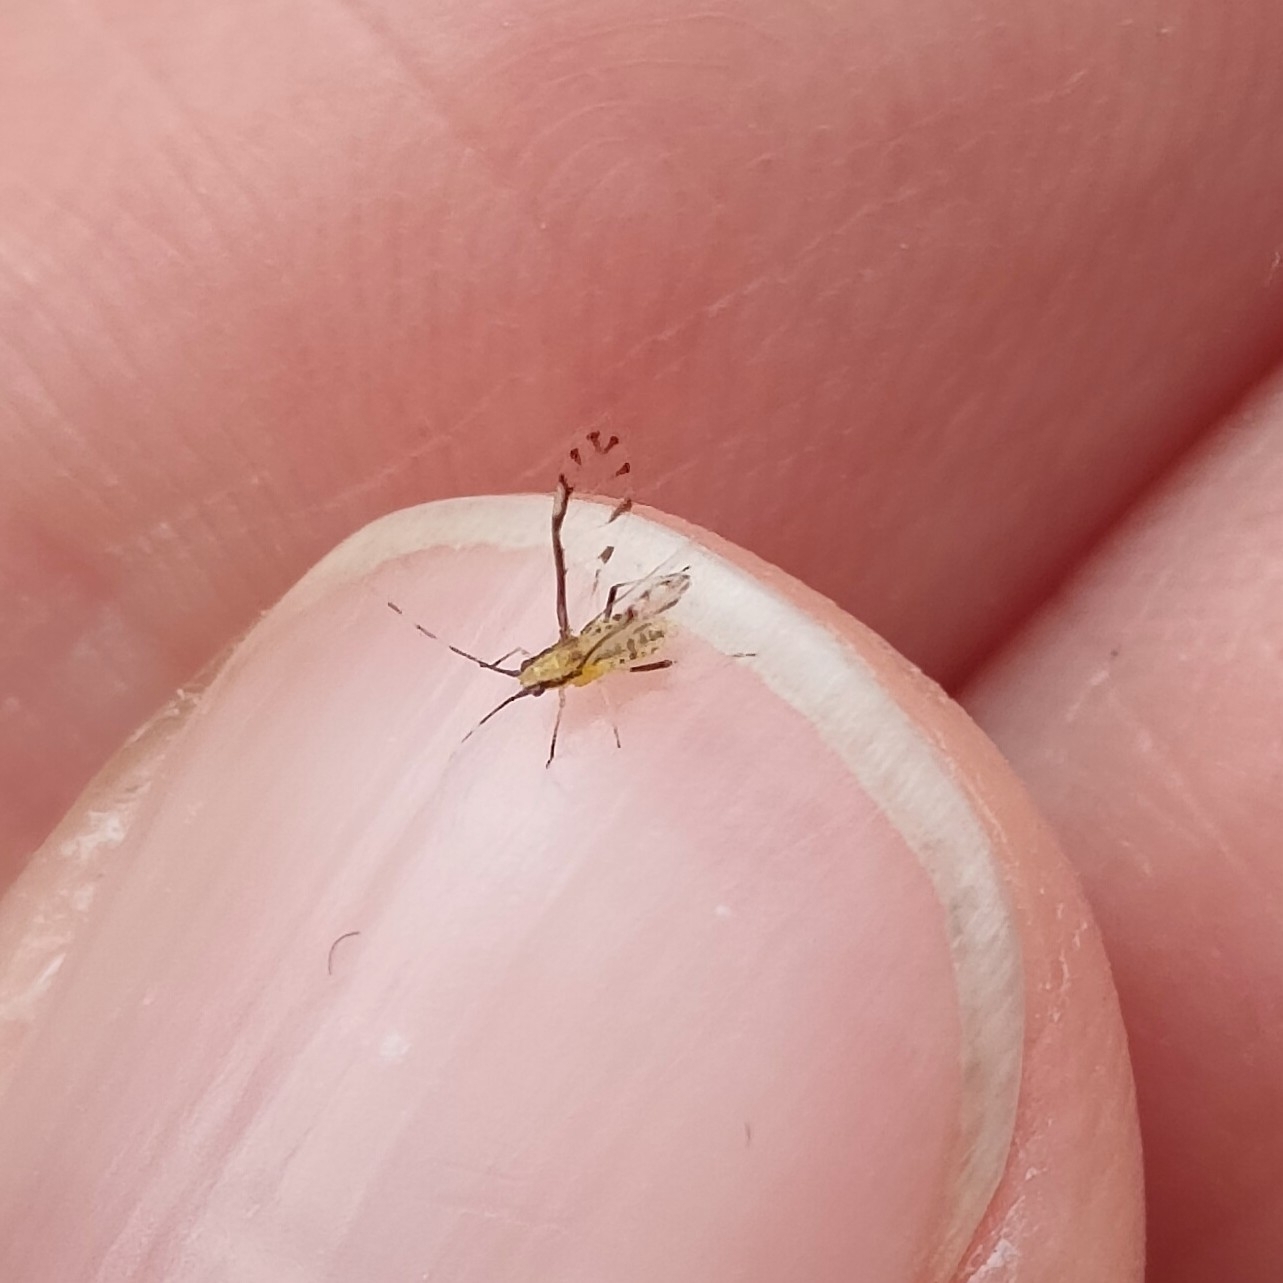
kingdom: Animalia
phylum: Arthropoda
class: Insecta
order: Hemiptera
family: Aphididae
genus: Eucallipterus
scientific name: Eucallipterus tiliae
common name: Aphid
